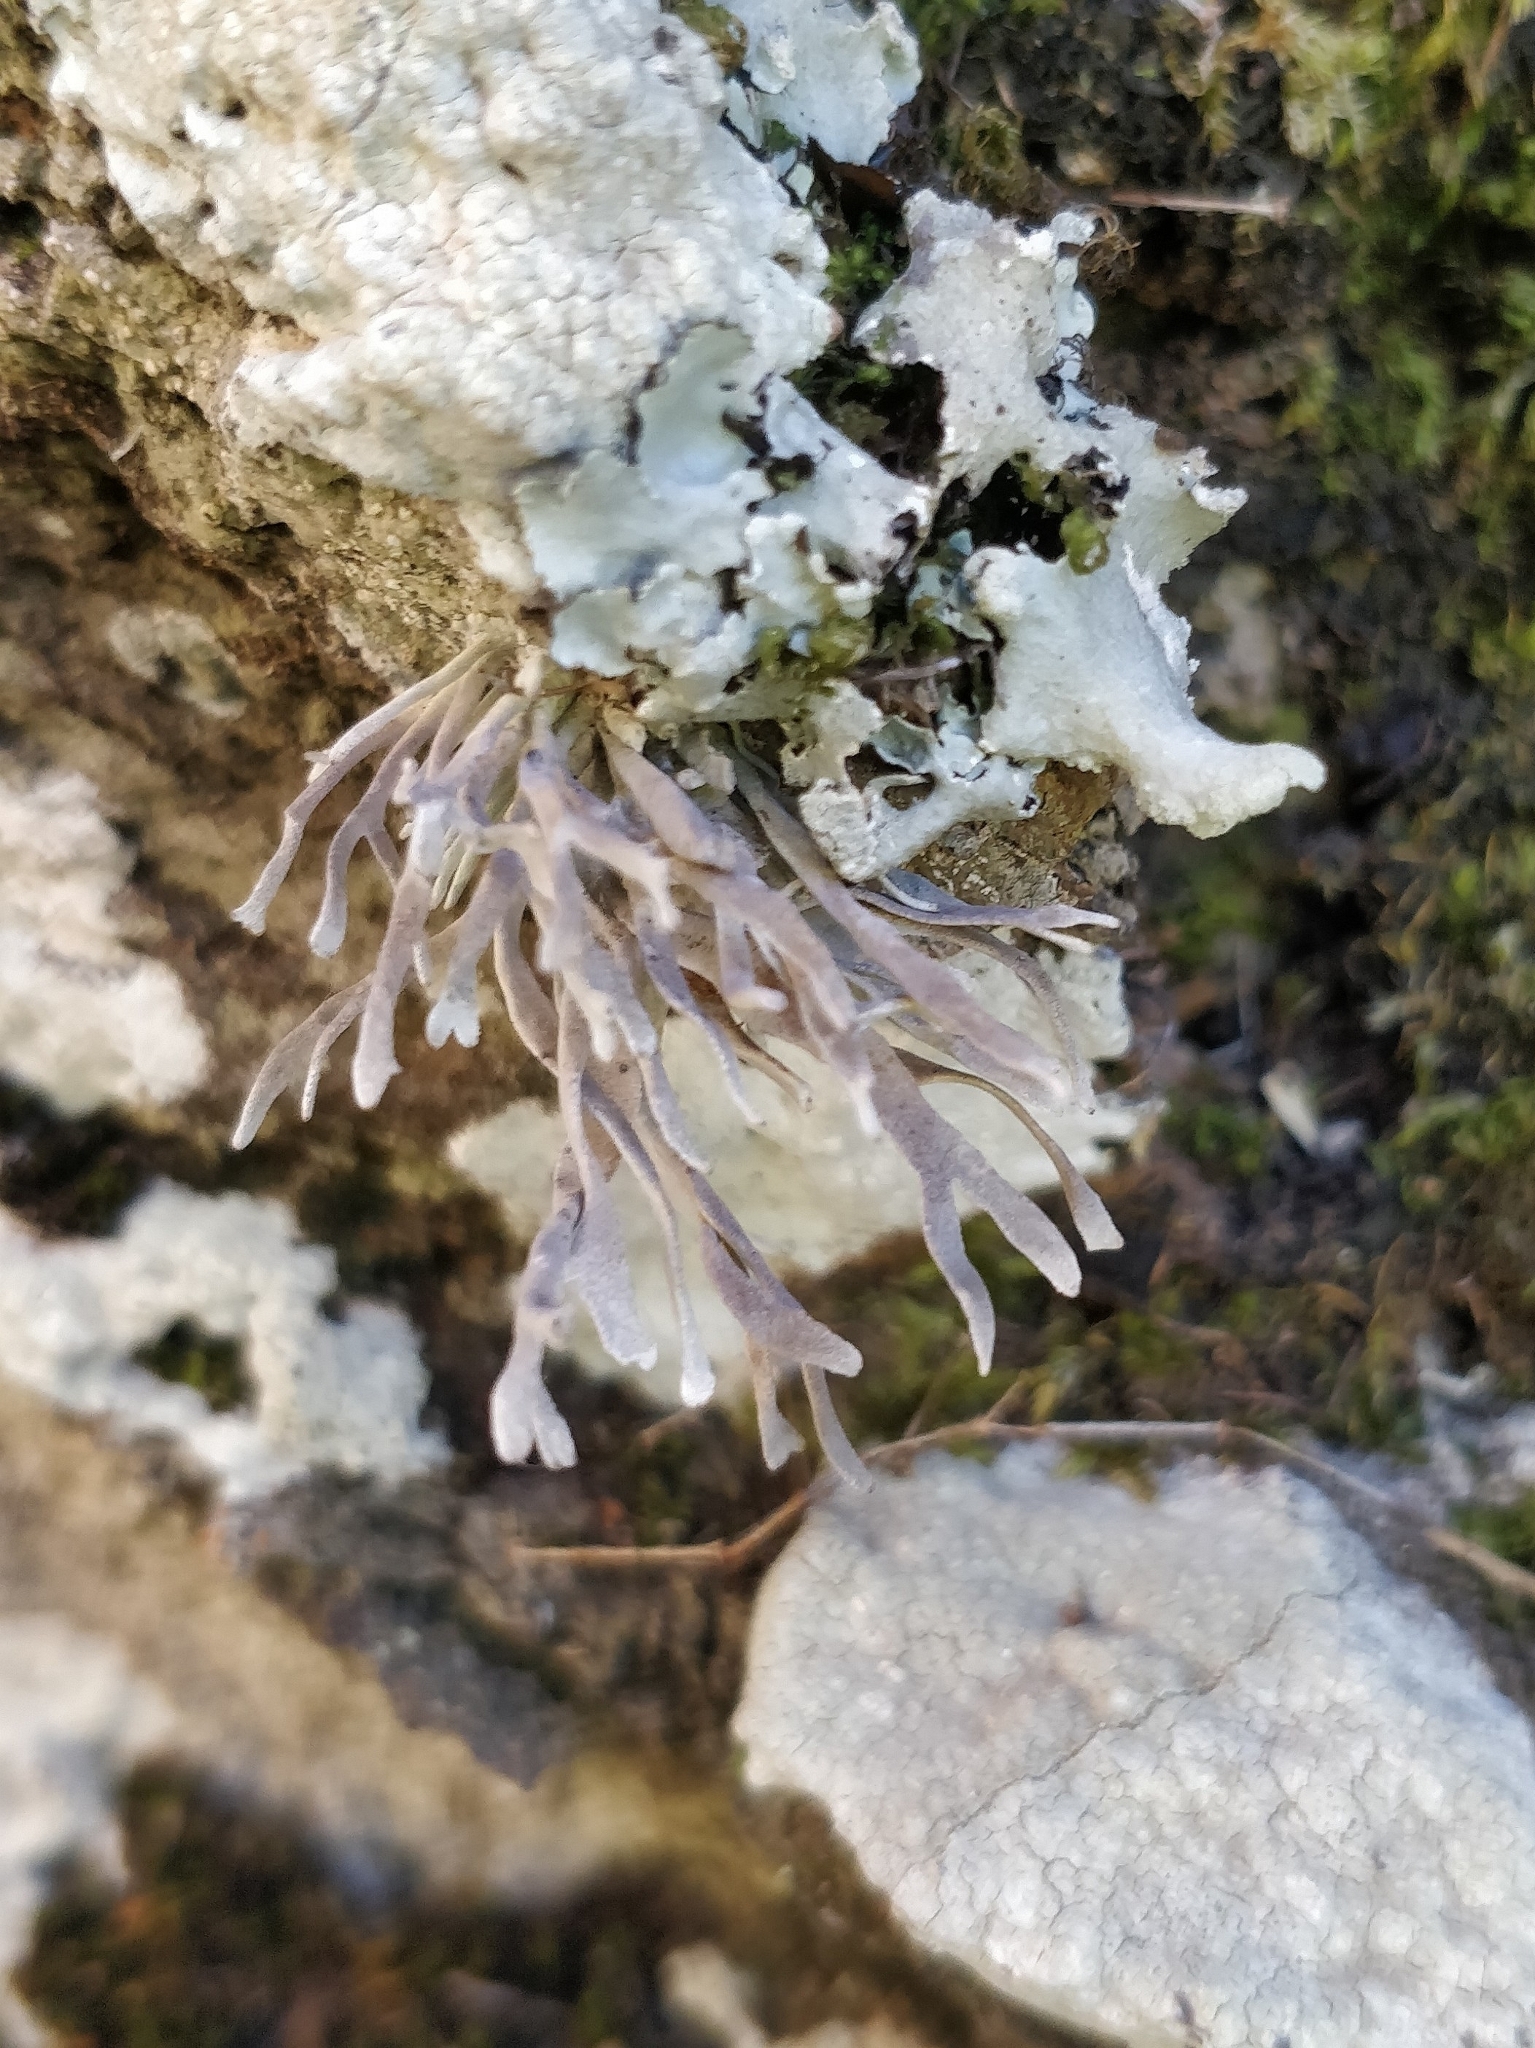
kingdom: Fungi
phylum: Ascomycota
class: Arthoniomycetes
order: Arthoniales
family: Roccellaceae
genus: Roccella
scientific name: Roccella fuciformis
